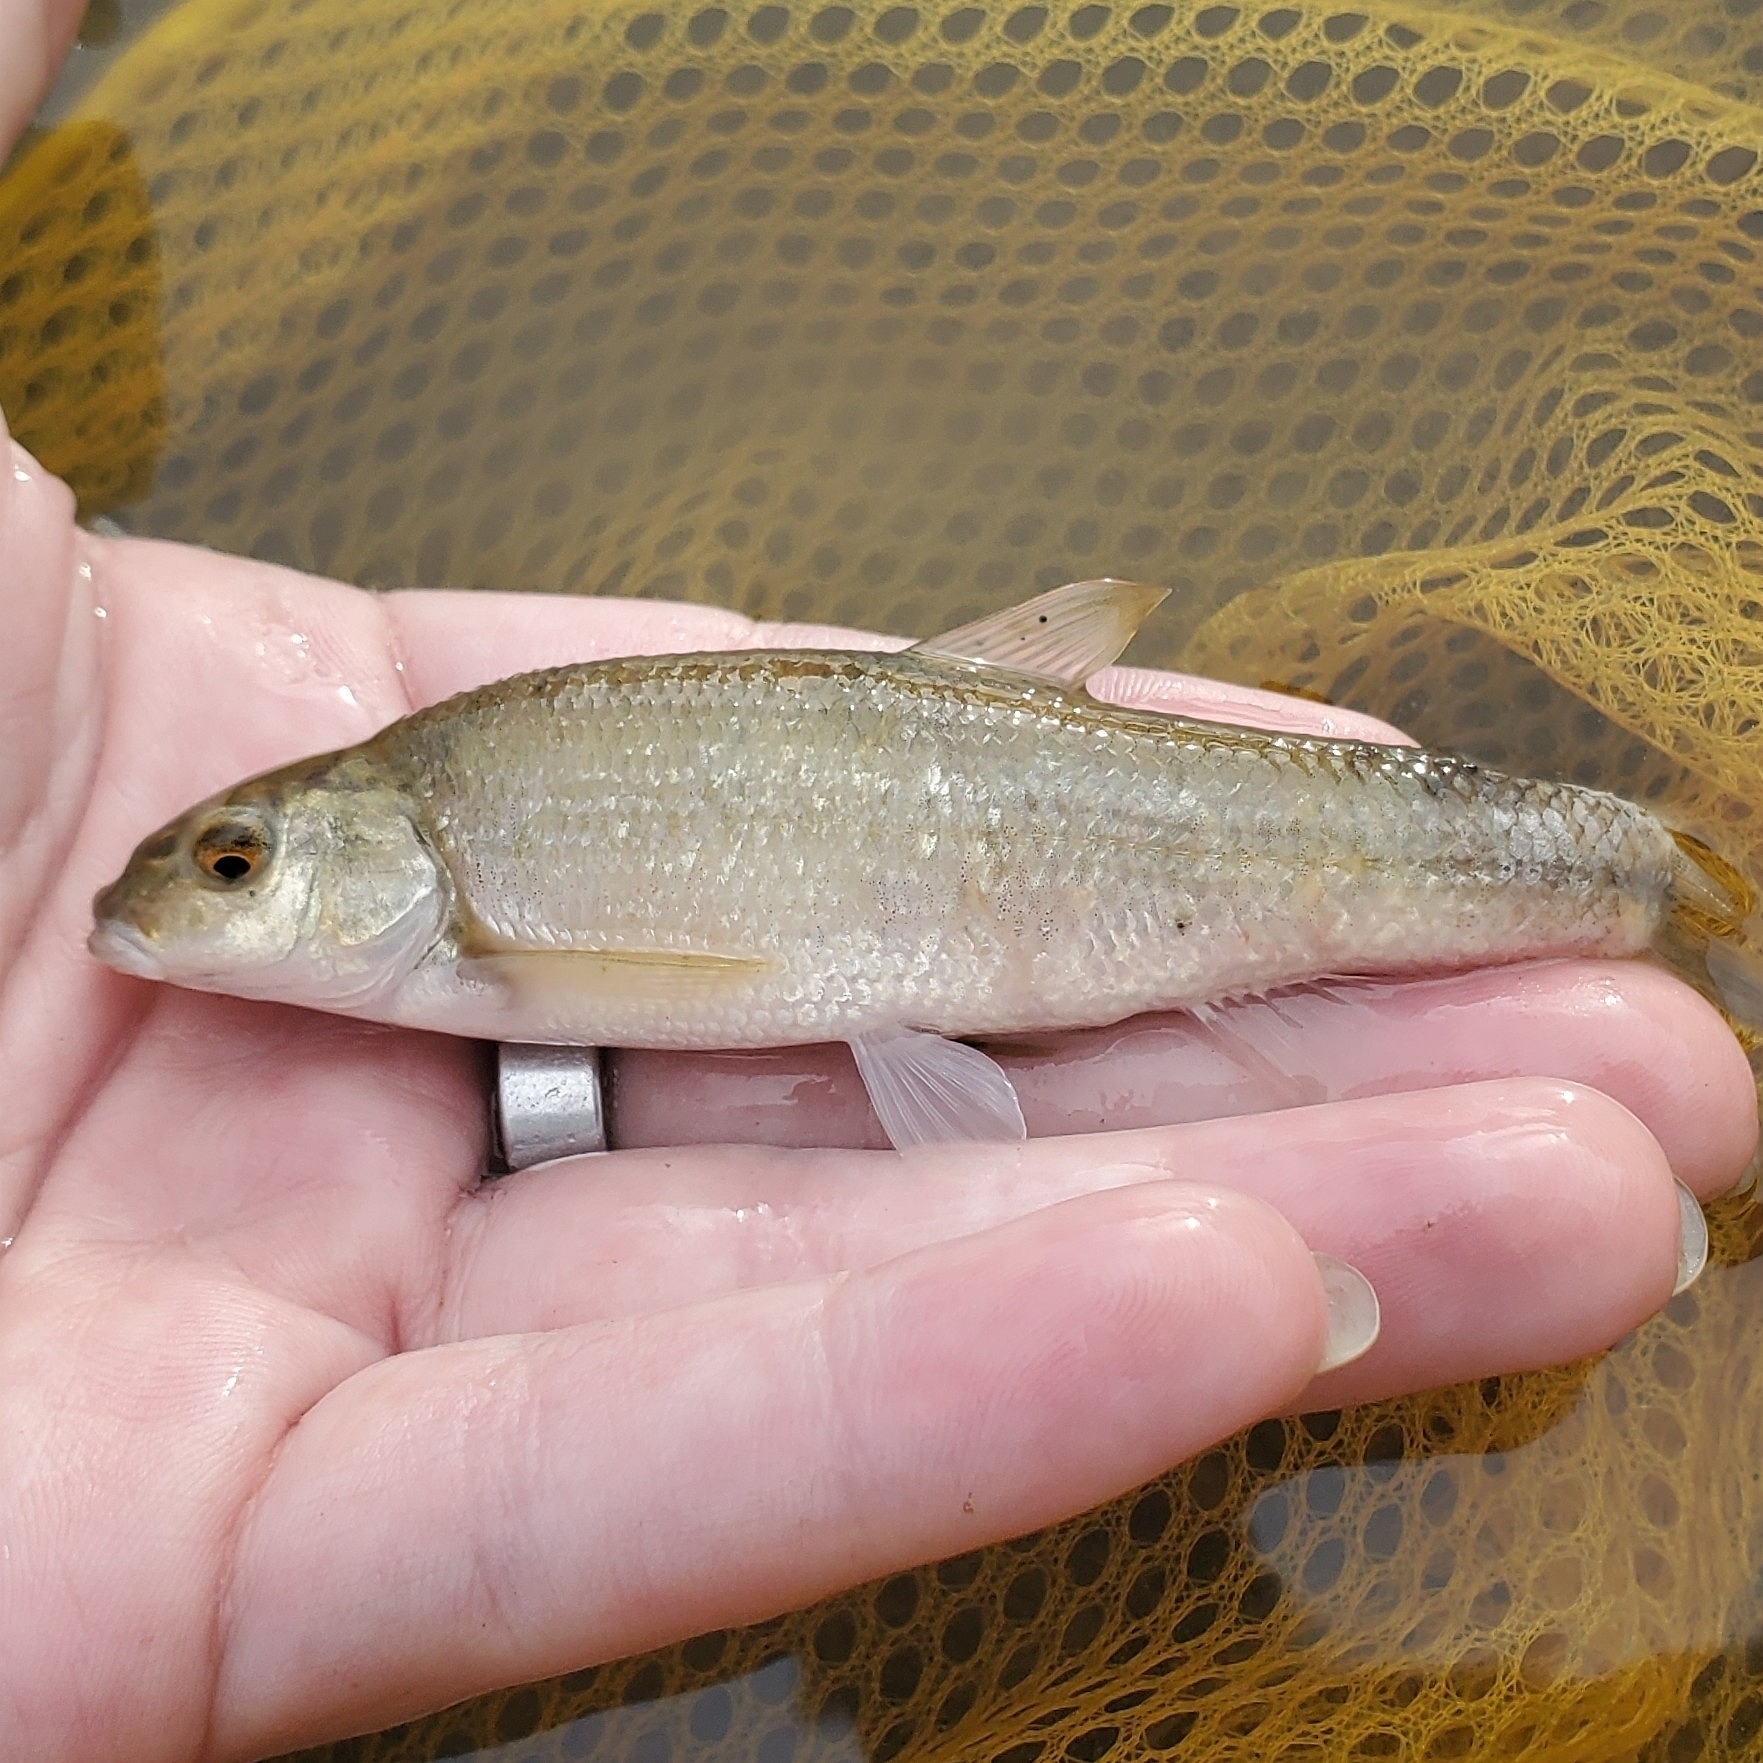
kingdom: Animalia
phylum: Chordata
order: Cypriniformes
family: Cyprinidae
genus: Campostoma
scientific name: Campostoma anomalum
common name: Central stoneroller
